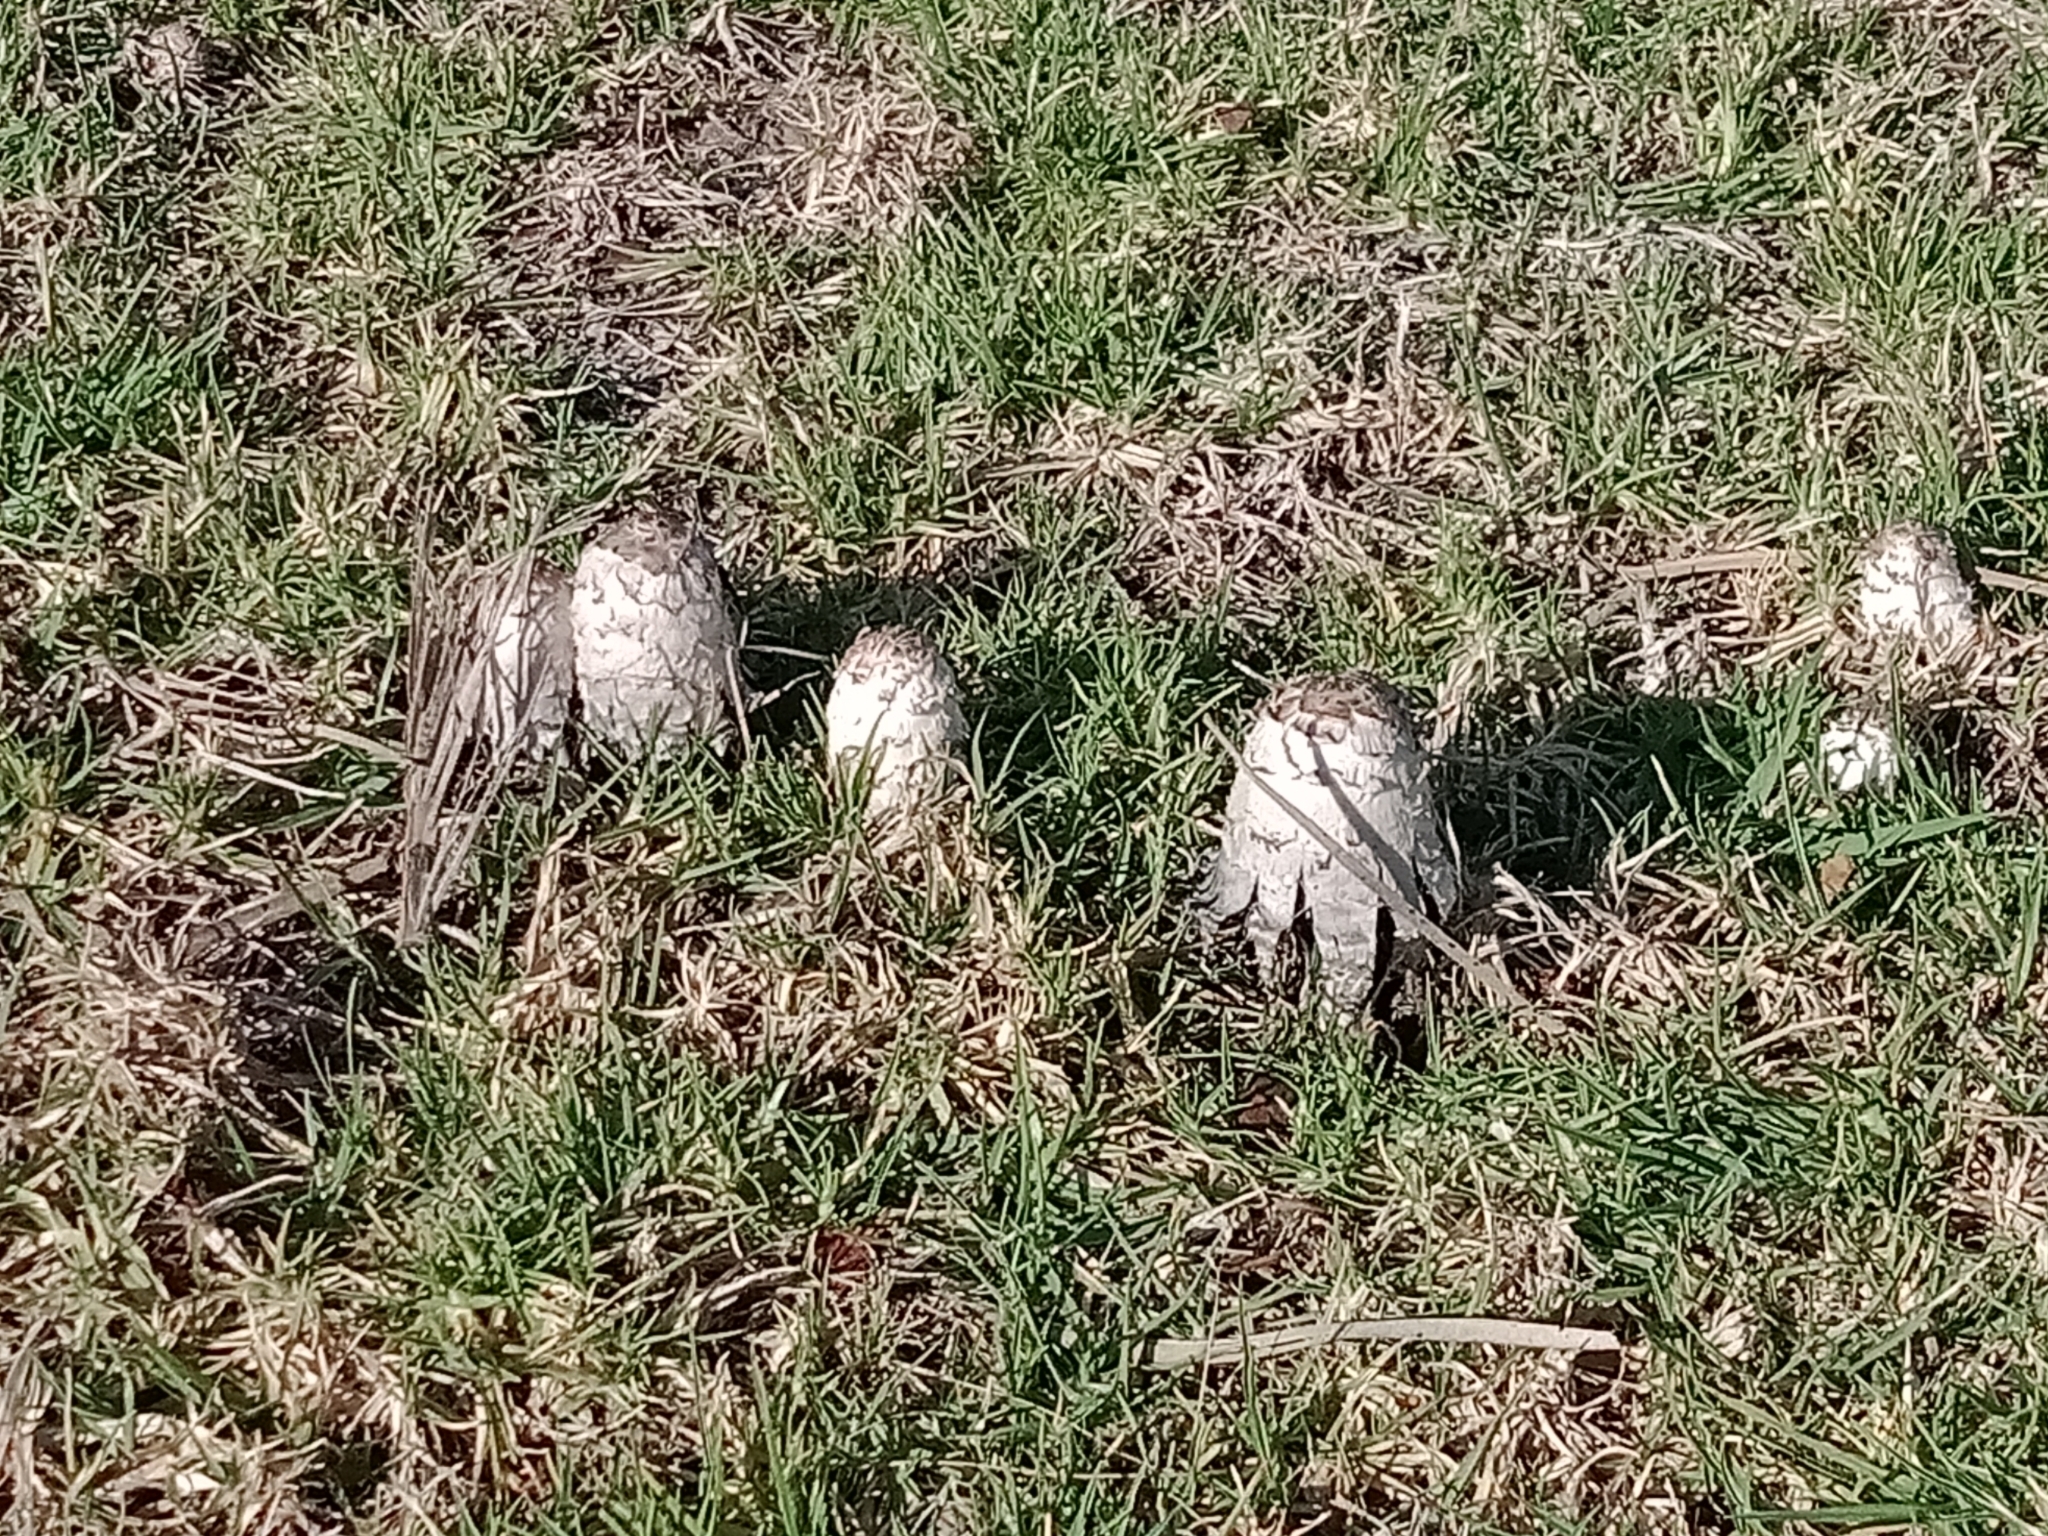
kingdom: Fungi
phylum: Basidiomycota
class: Agaricomycetes
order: Agaricales
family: Agaricaceae
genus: Coprinus
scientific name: Coprinus comatus
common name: Lawyer's wig
